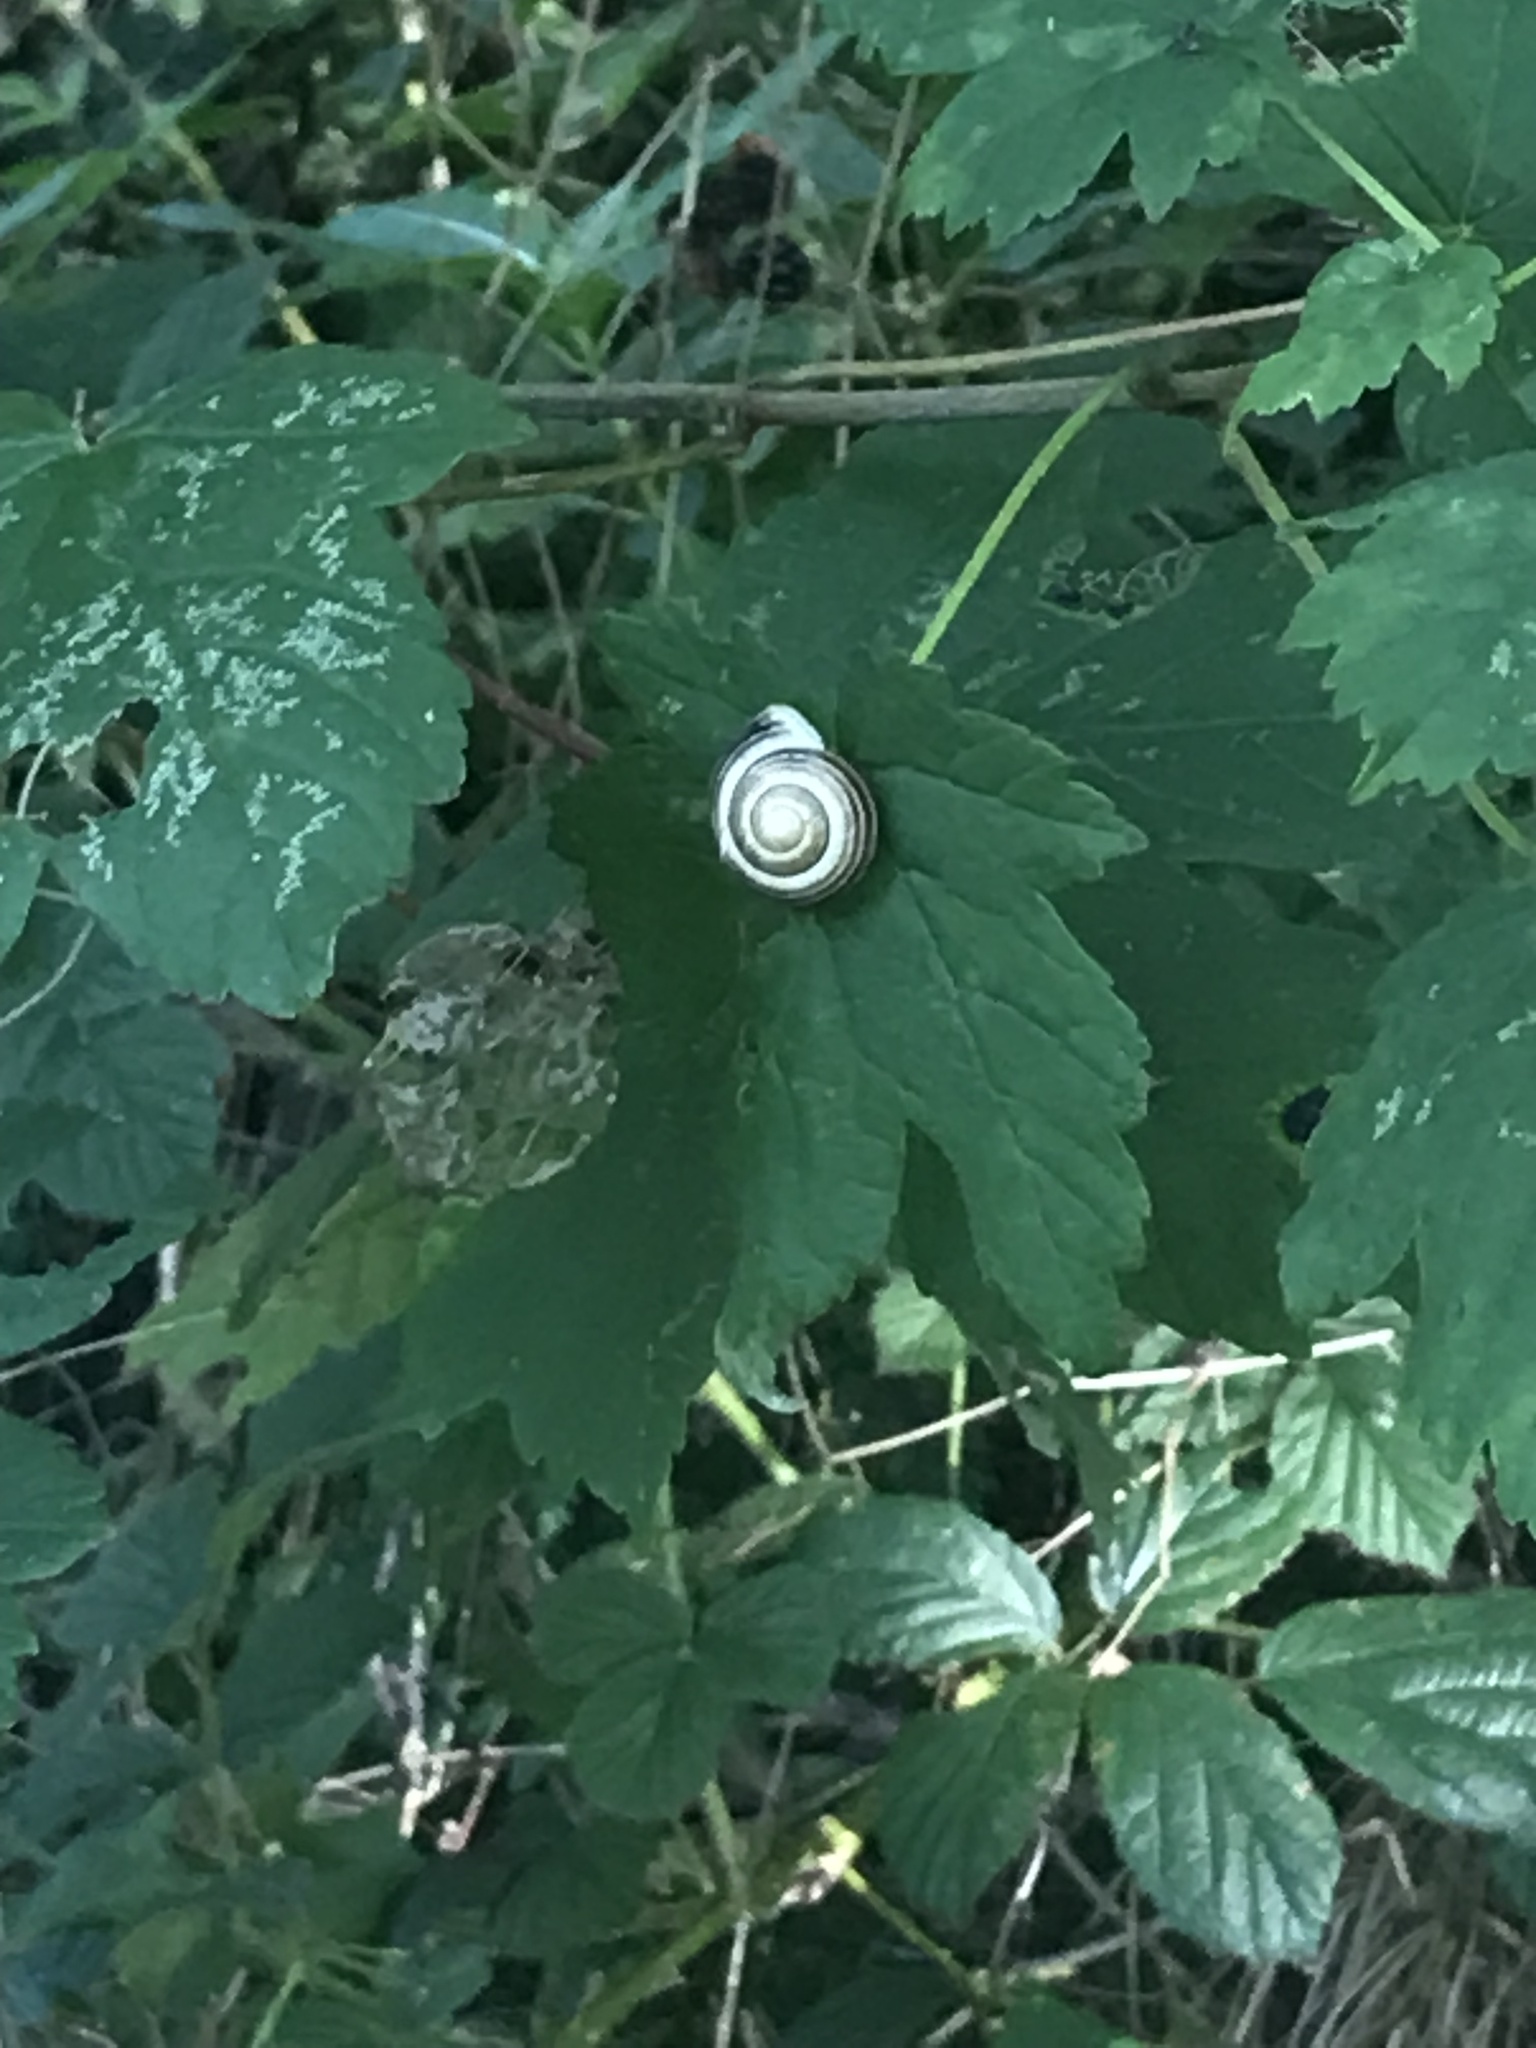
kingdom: Animalia
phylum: Mollusca
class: Gastropoda
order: Stylommatophora
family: Helicidae
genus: Cepaea
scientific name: Cepaea hortensis
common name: White-lip gardensnail
